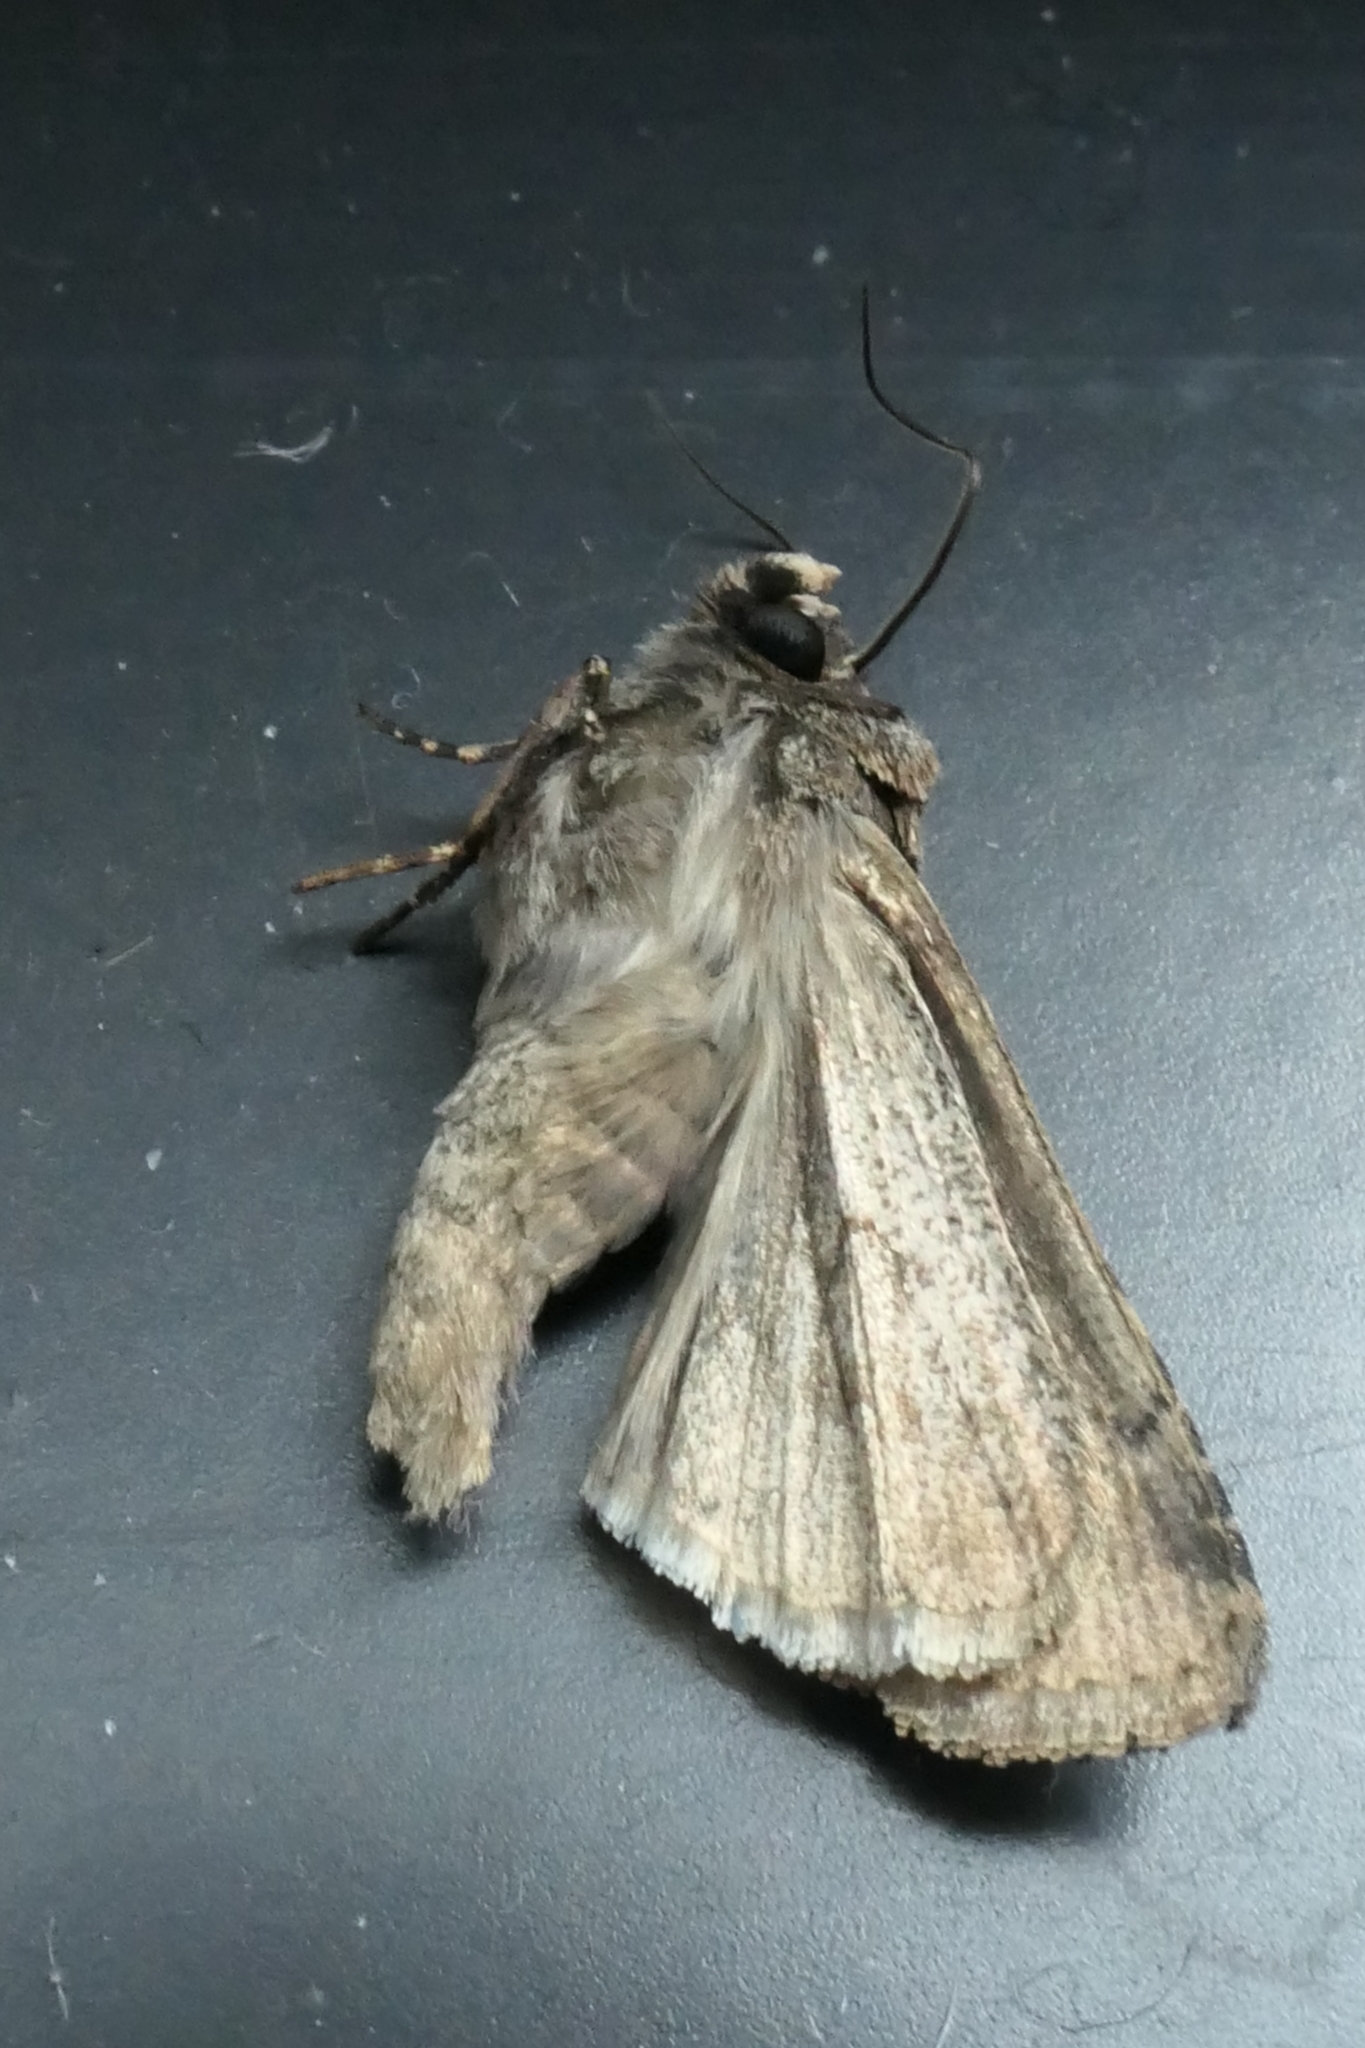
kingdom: Animalia
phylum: Arthropoda
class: Insecta
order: Lepidoptera
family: Noctuidae
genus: Proteuxoa
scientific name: Proteuxoa tetronycha
